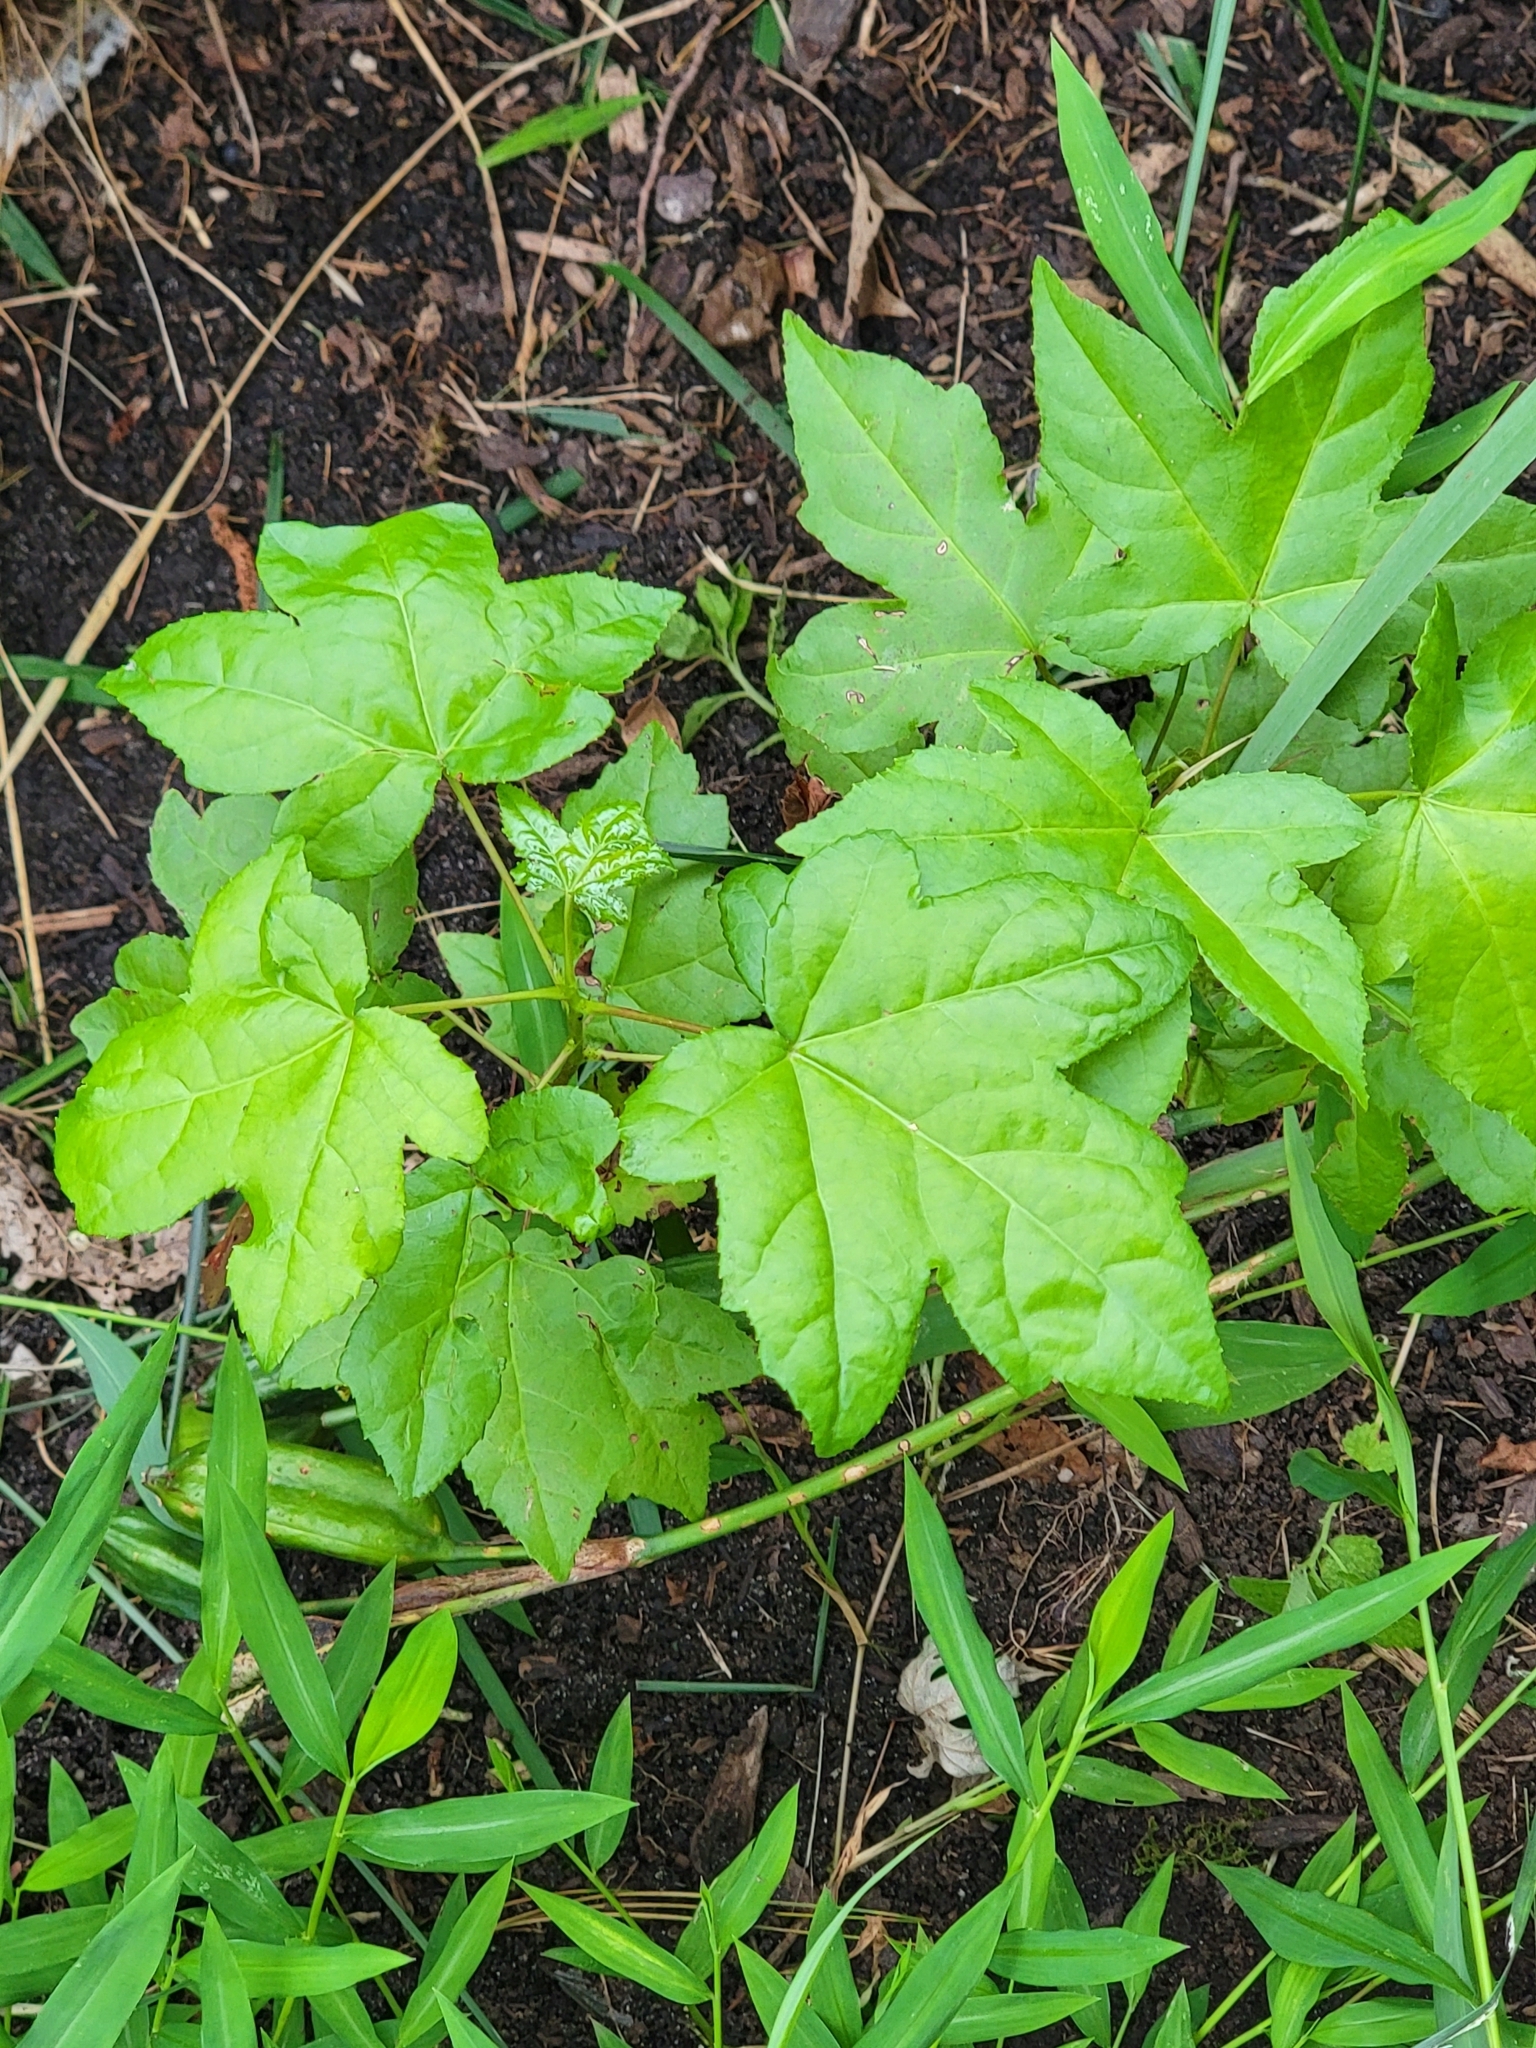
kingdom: Plantae
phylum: Tracheophyta
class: Magnoliopsida
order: Saxifragales
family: Altingiaceae
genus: Liquidambar
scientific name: Liquidambar styraciflua
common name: Sweet gum
